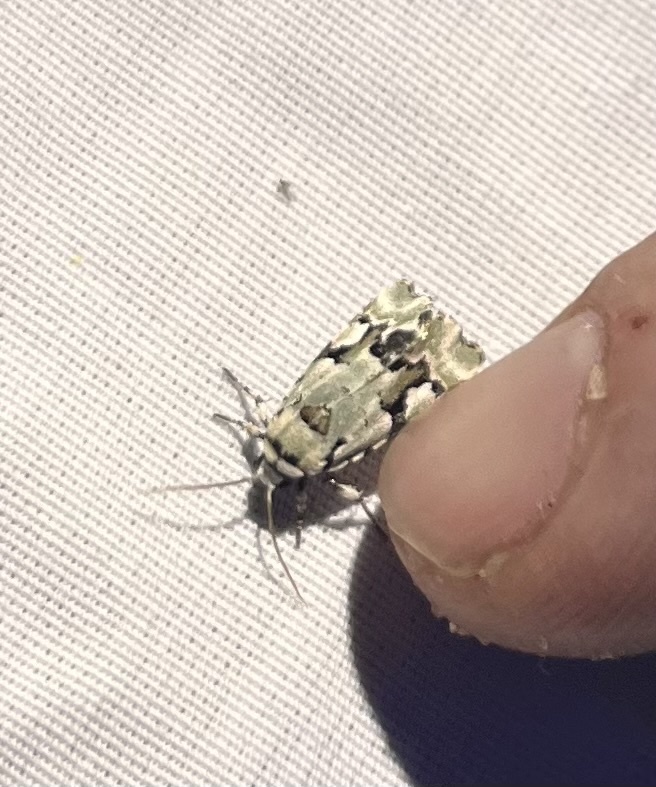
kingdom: Animalia
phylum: Arthropoda
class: Insecta
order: Lepidoptera
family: Noctuidae
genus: Emarginea
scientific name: Emarginea percara
